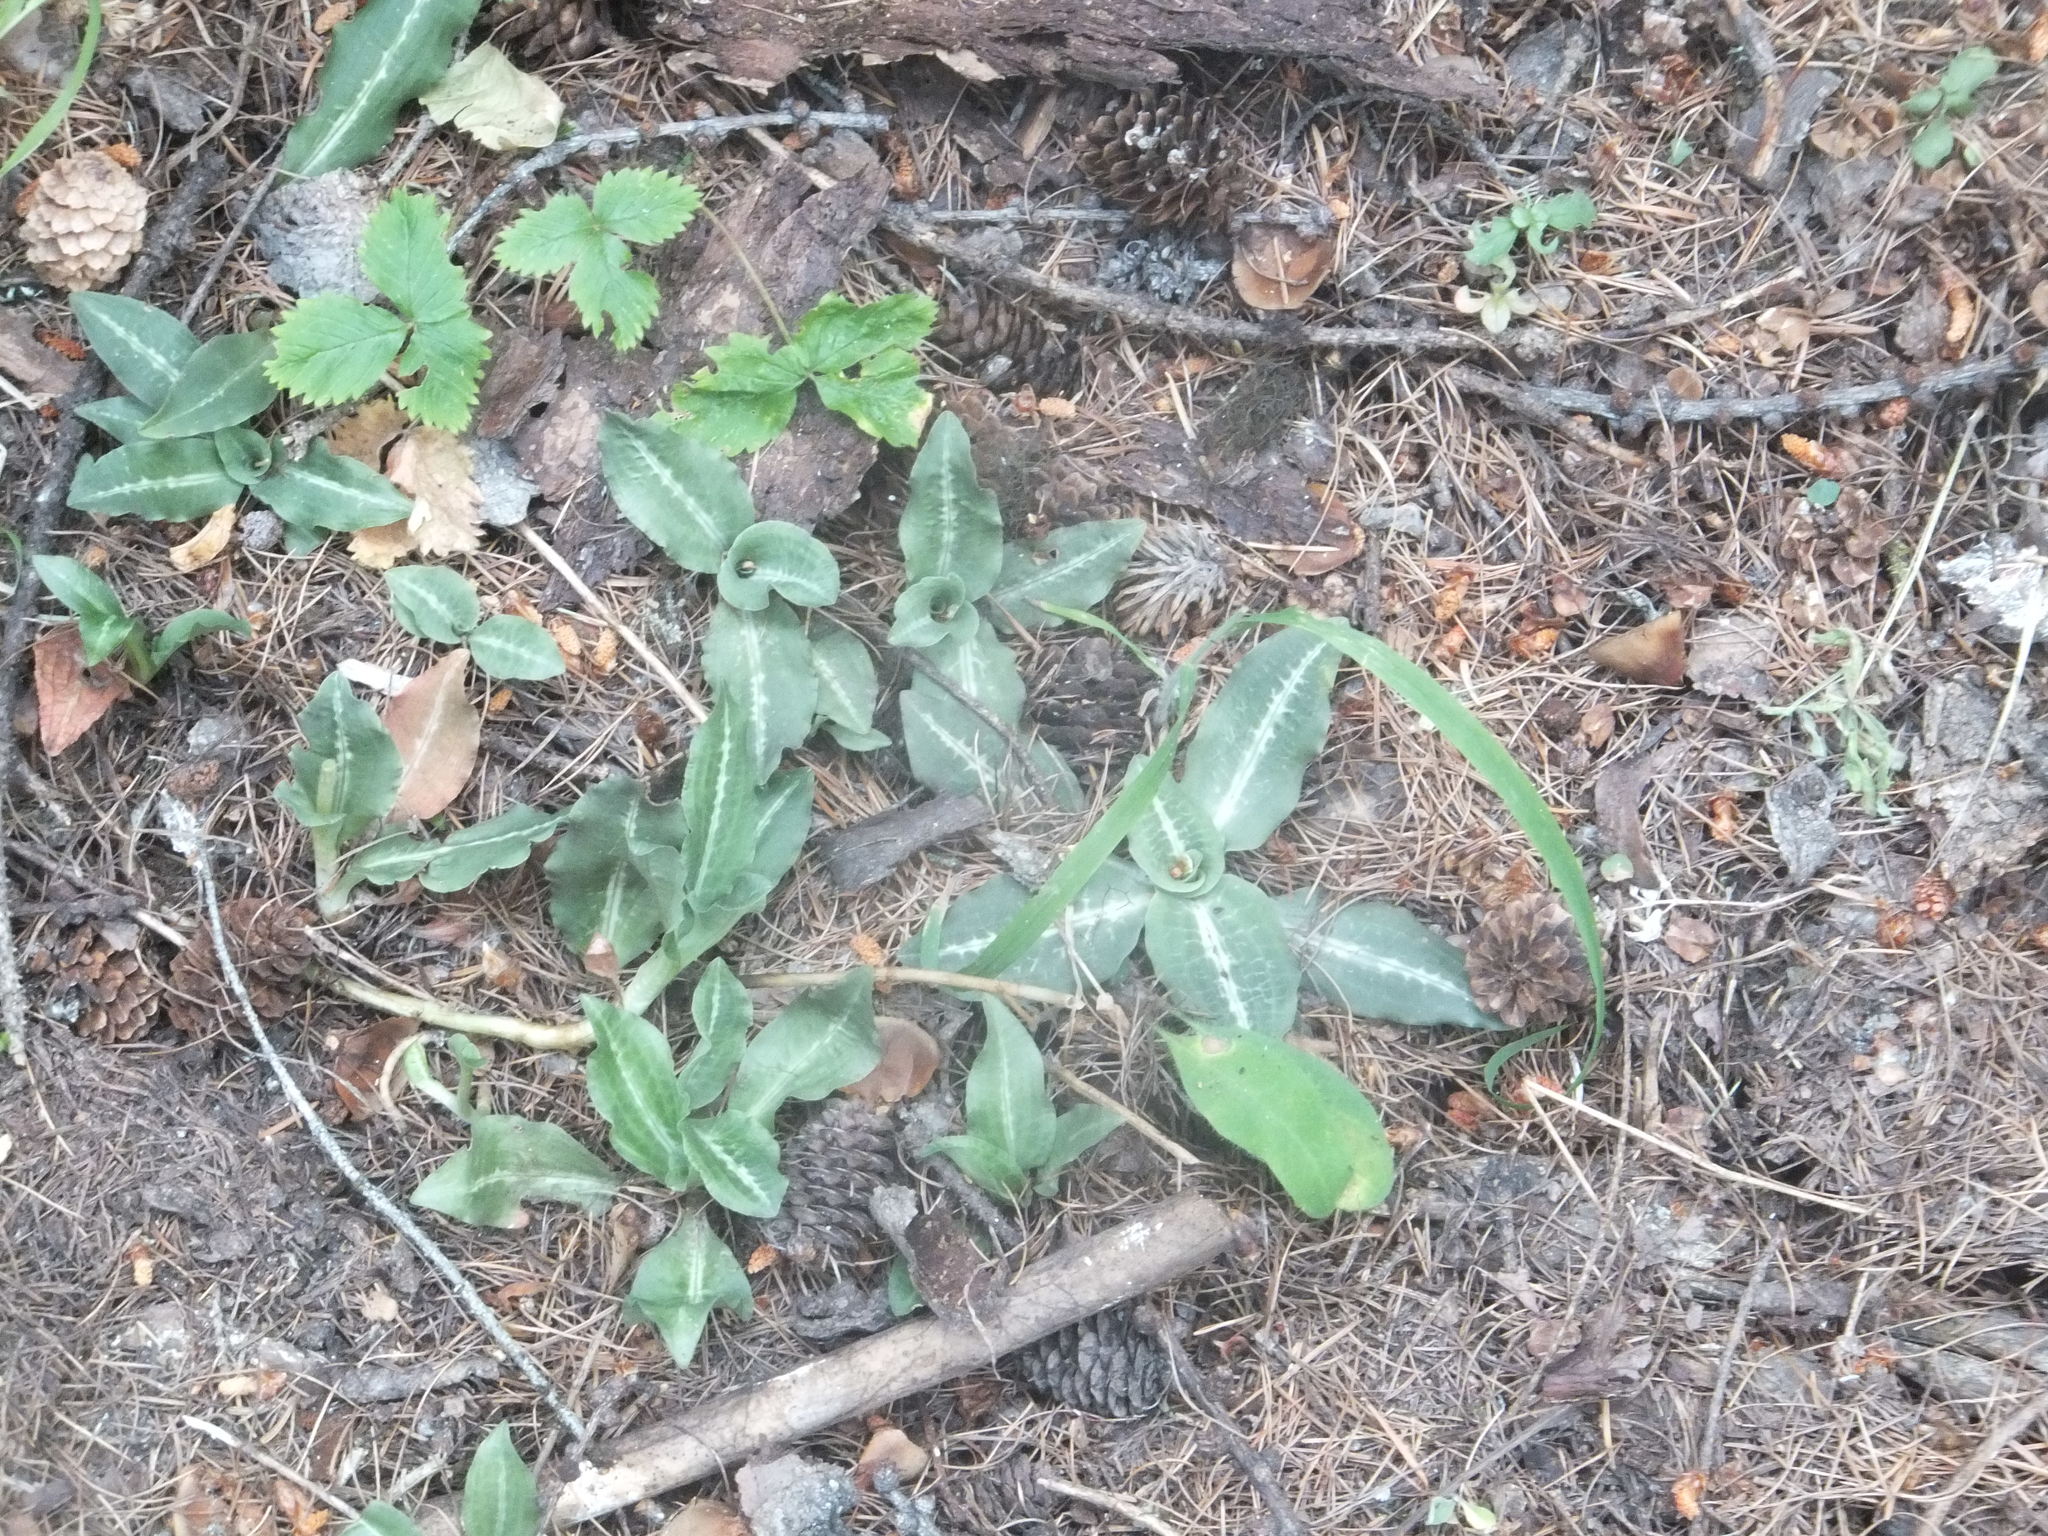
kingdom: Plantae
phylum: Tracheophyta
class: Liliopsida
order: Asparagales
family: Orchidaceae
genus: Goodyera
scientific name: Goodyera oblongifolia
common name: Giant rattlesnake-plantain
